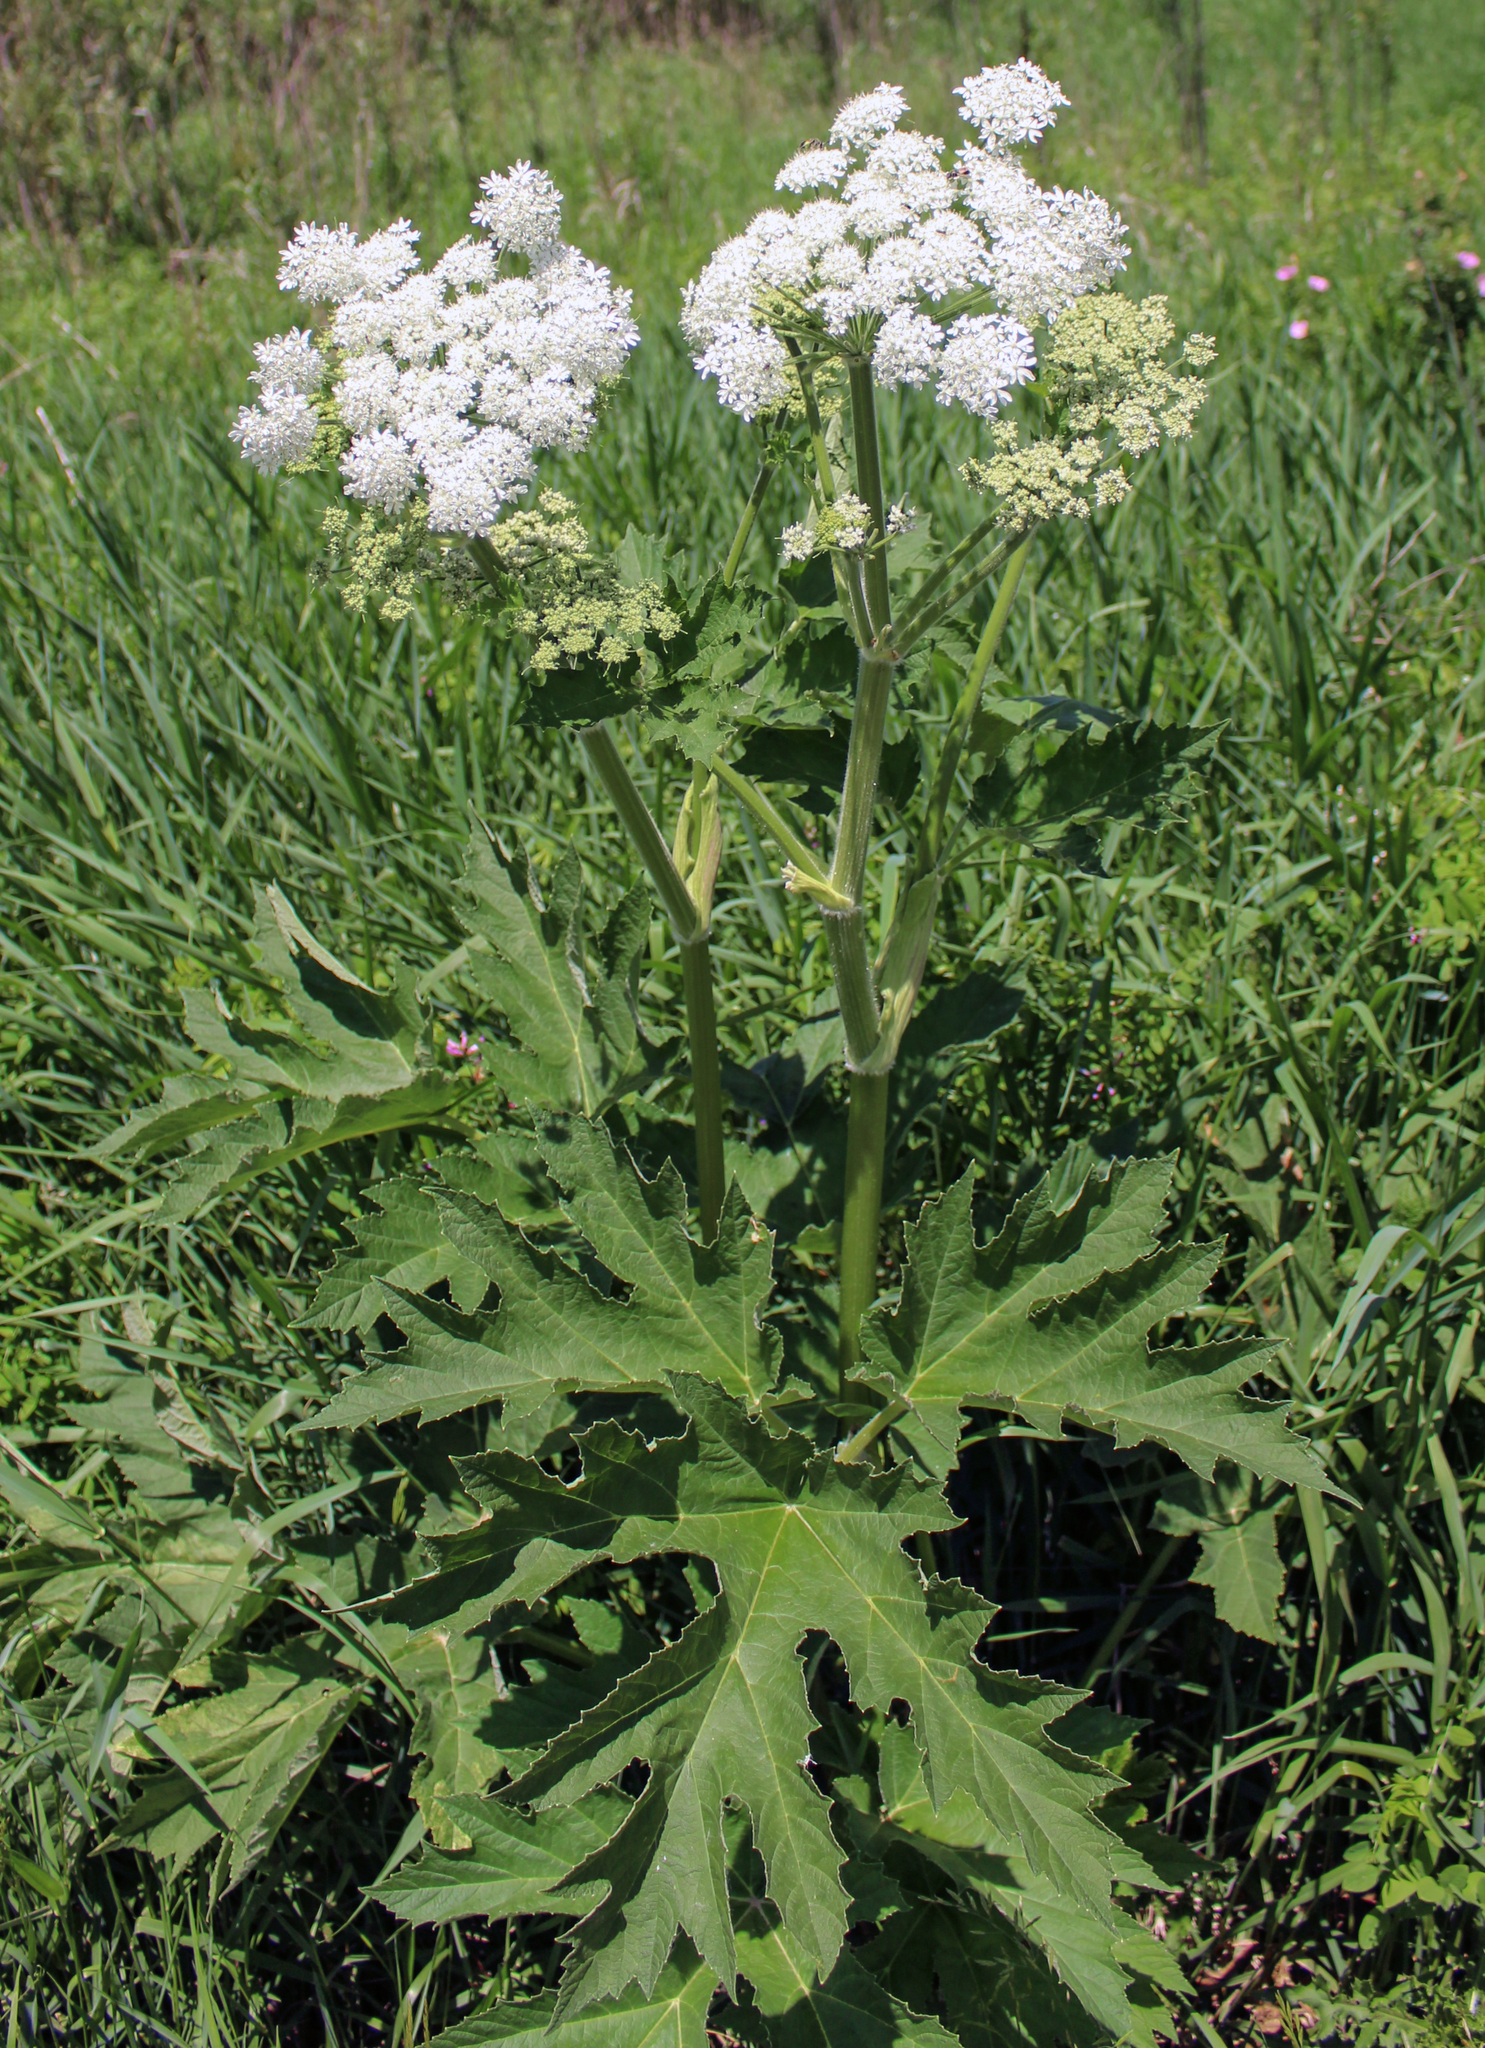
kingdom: Plantae
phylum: Tracheophyta
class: Magnoliopsida
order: Apiales
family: Apiaceae
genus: Heracleum
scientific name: Heracleum maximum
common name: American cow parsnip
